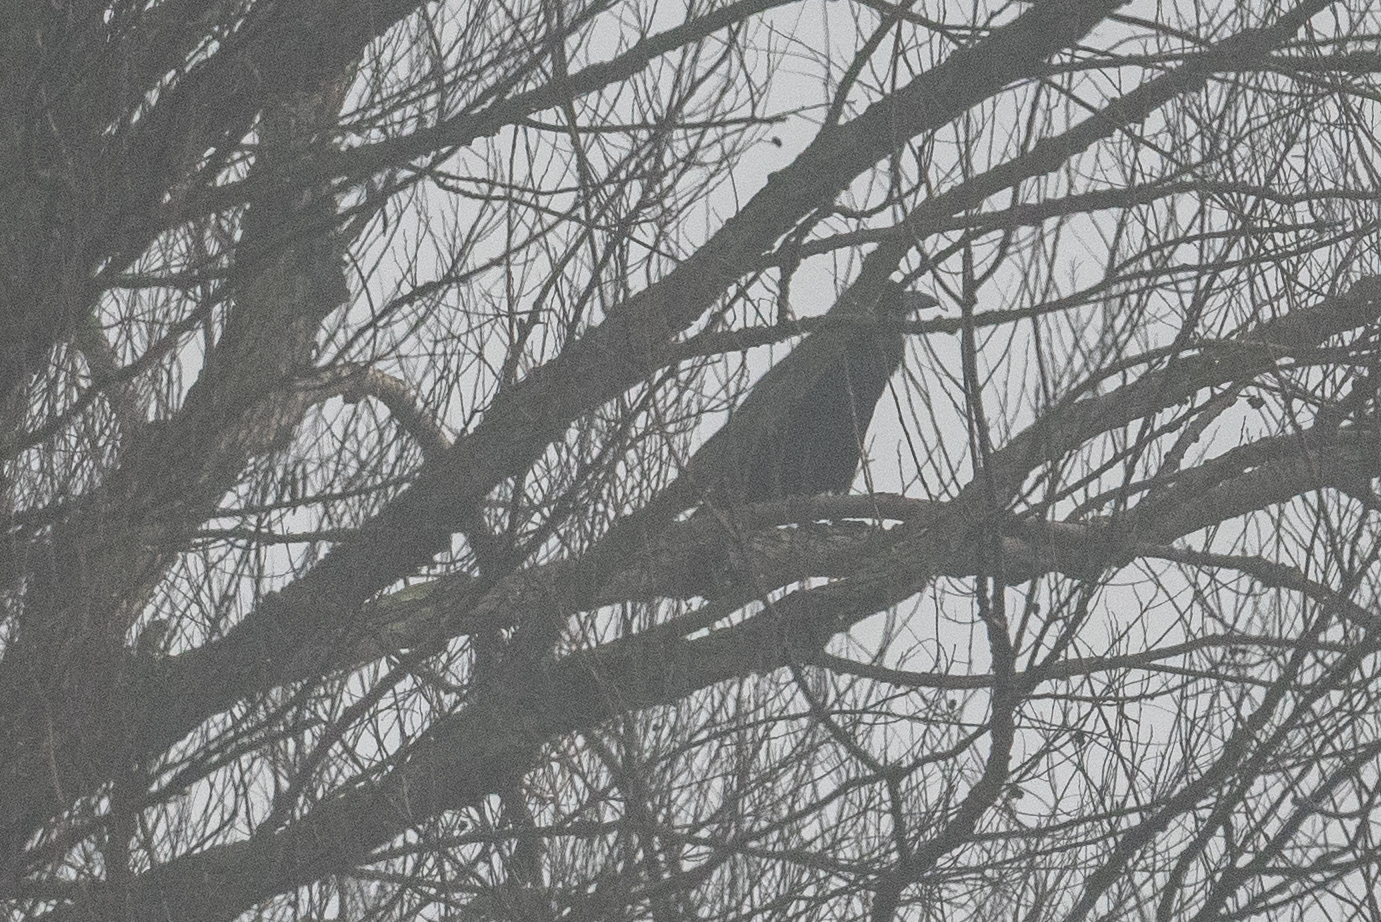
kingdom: Animalia
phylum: Chordata
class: Aves
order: Passeriformes
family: Corvidae
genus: Corvus
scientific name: Corvus brachyrhynchos
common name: American crow
